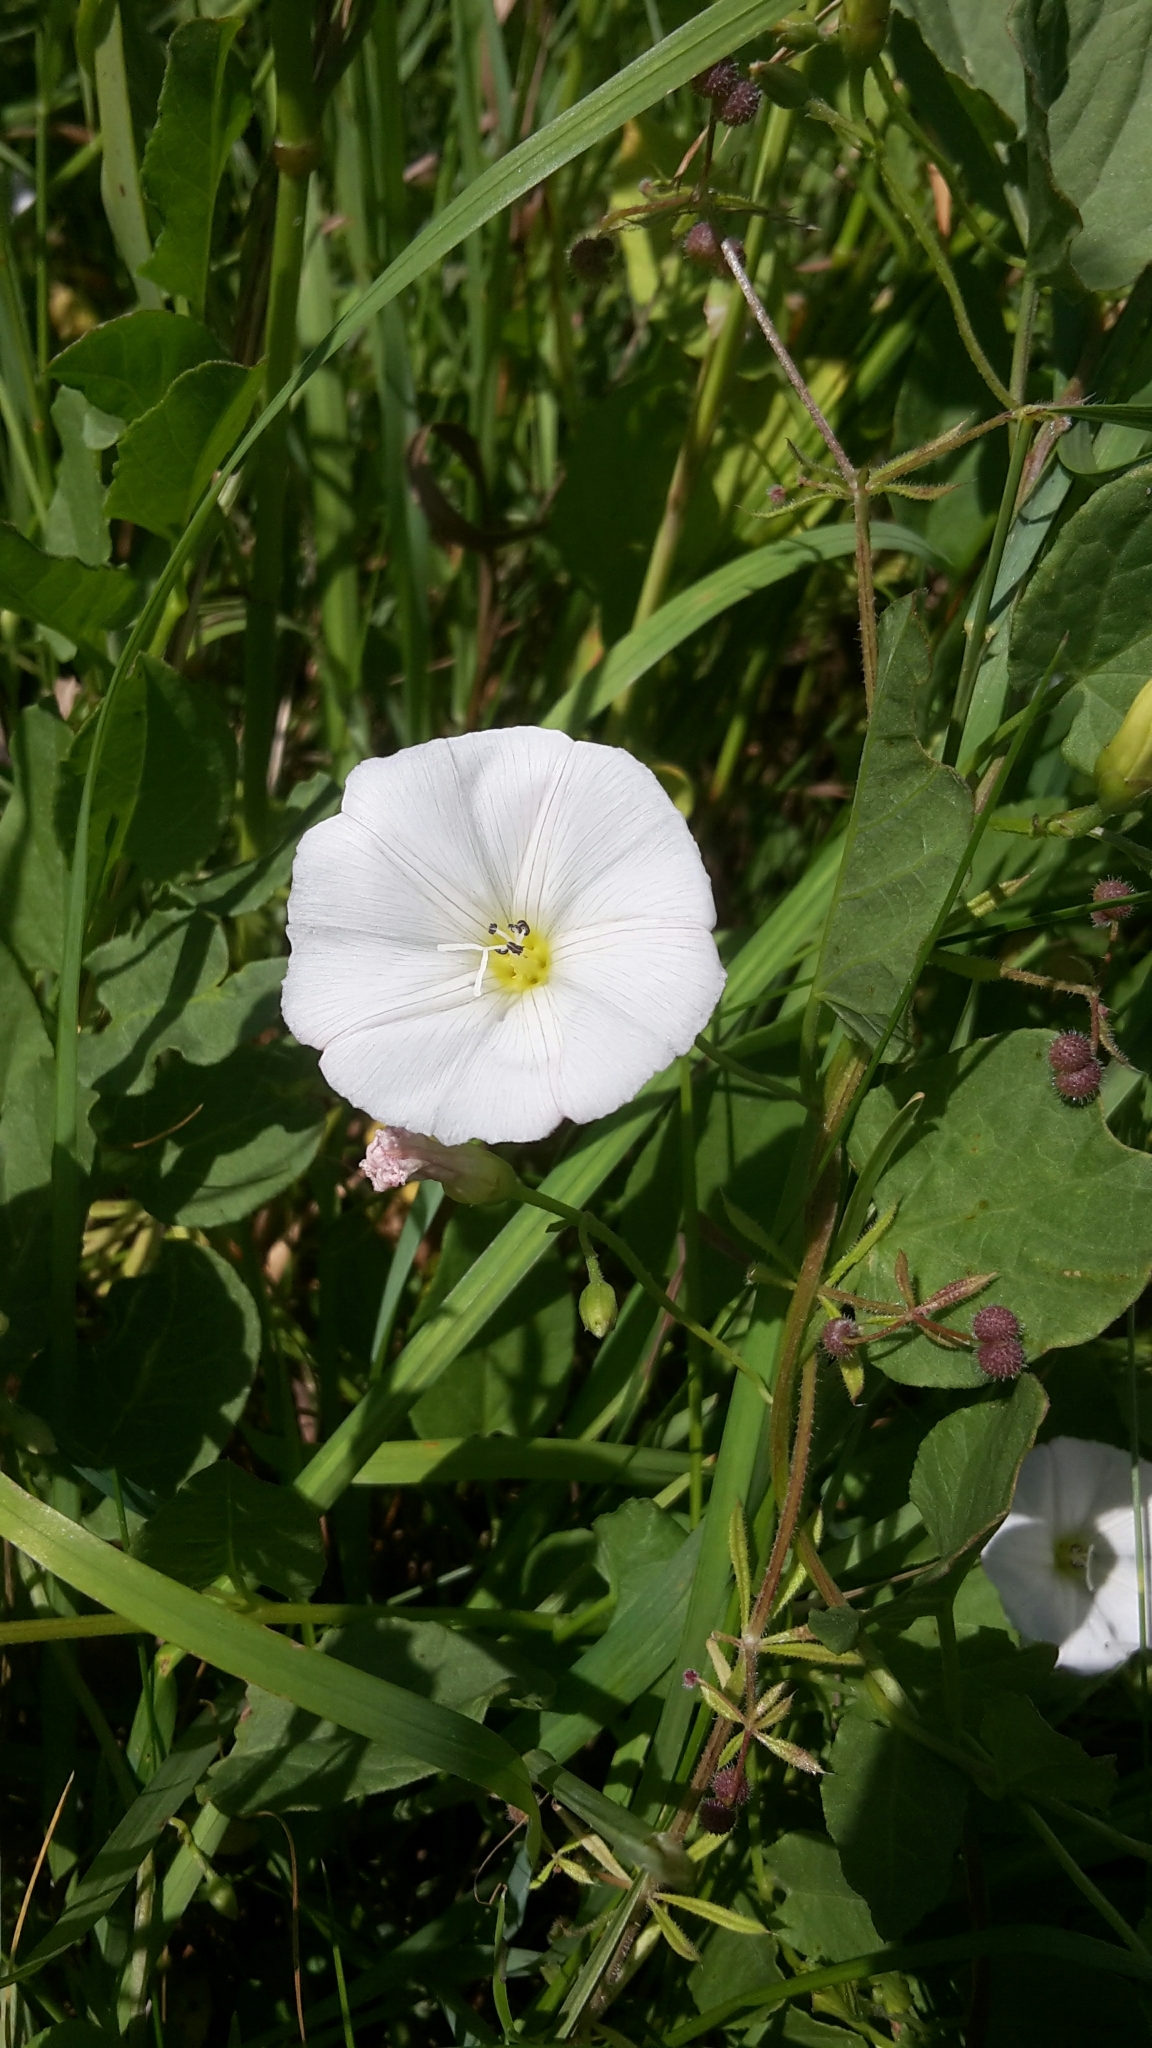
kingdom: Plantae
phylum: Tracheophyta
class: Magnoliopsida
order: Solanales
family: Convolvulaceae
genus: Convolvulus
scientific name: Convolvulus arvensis
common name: Field bindweed
